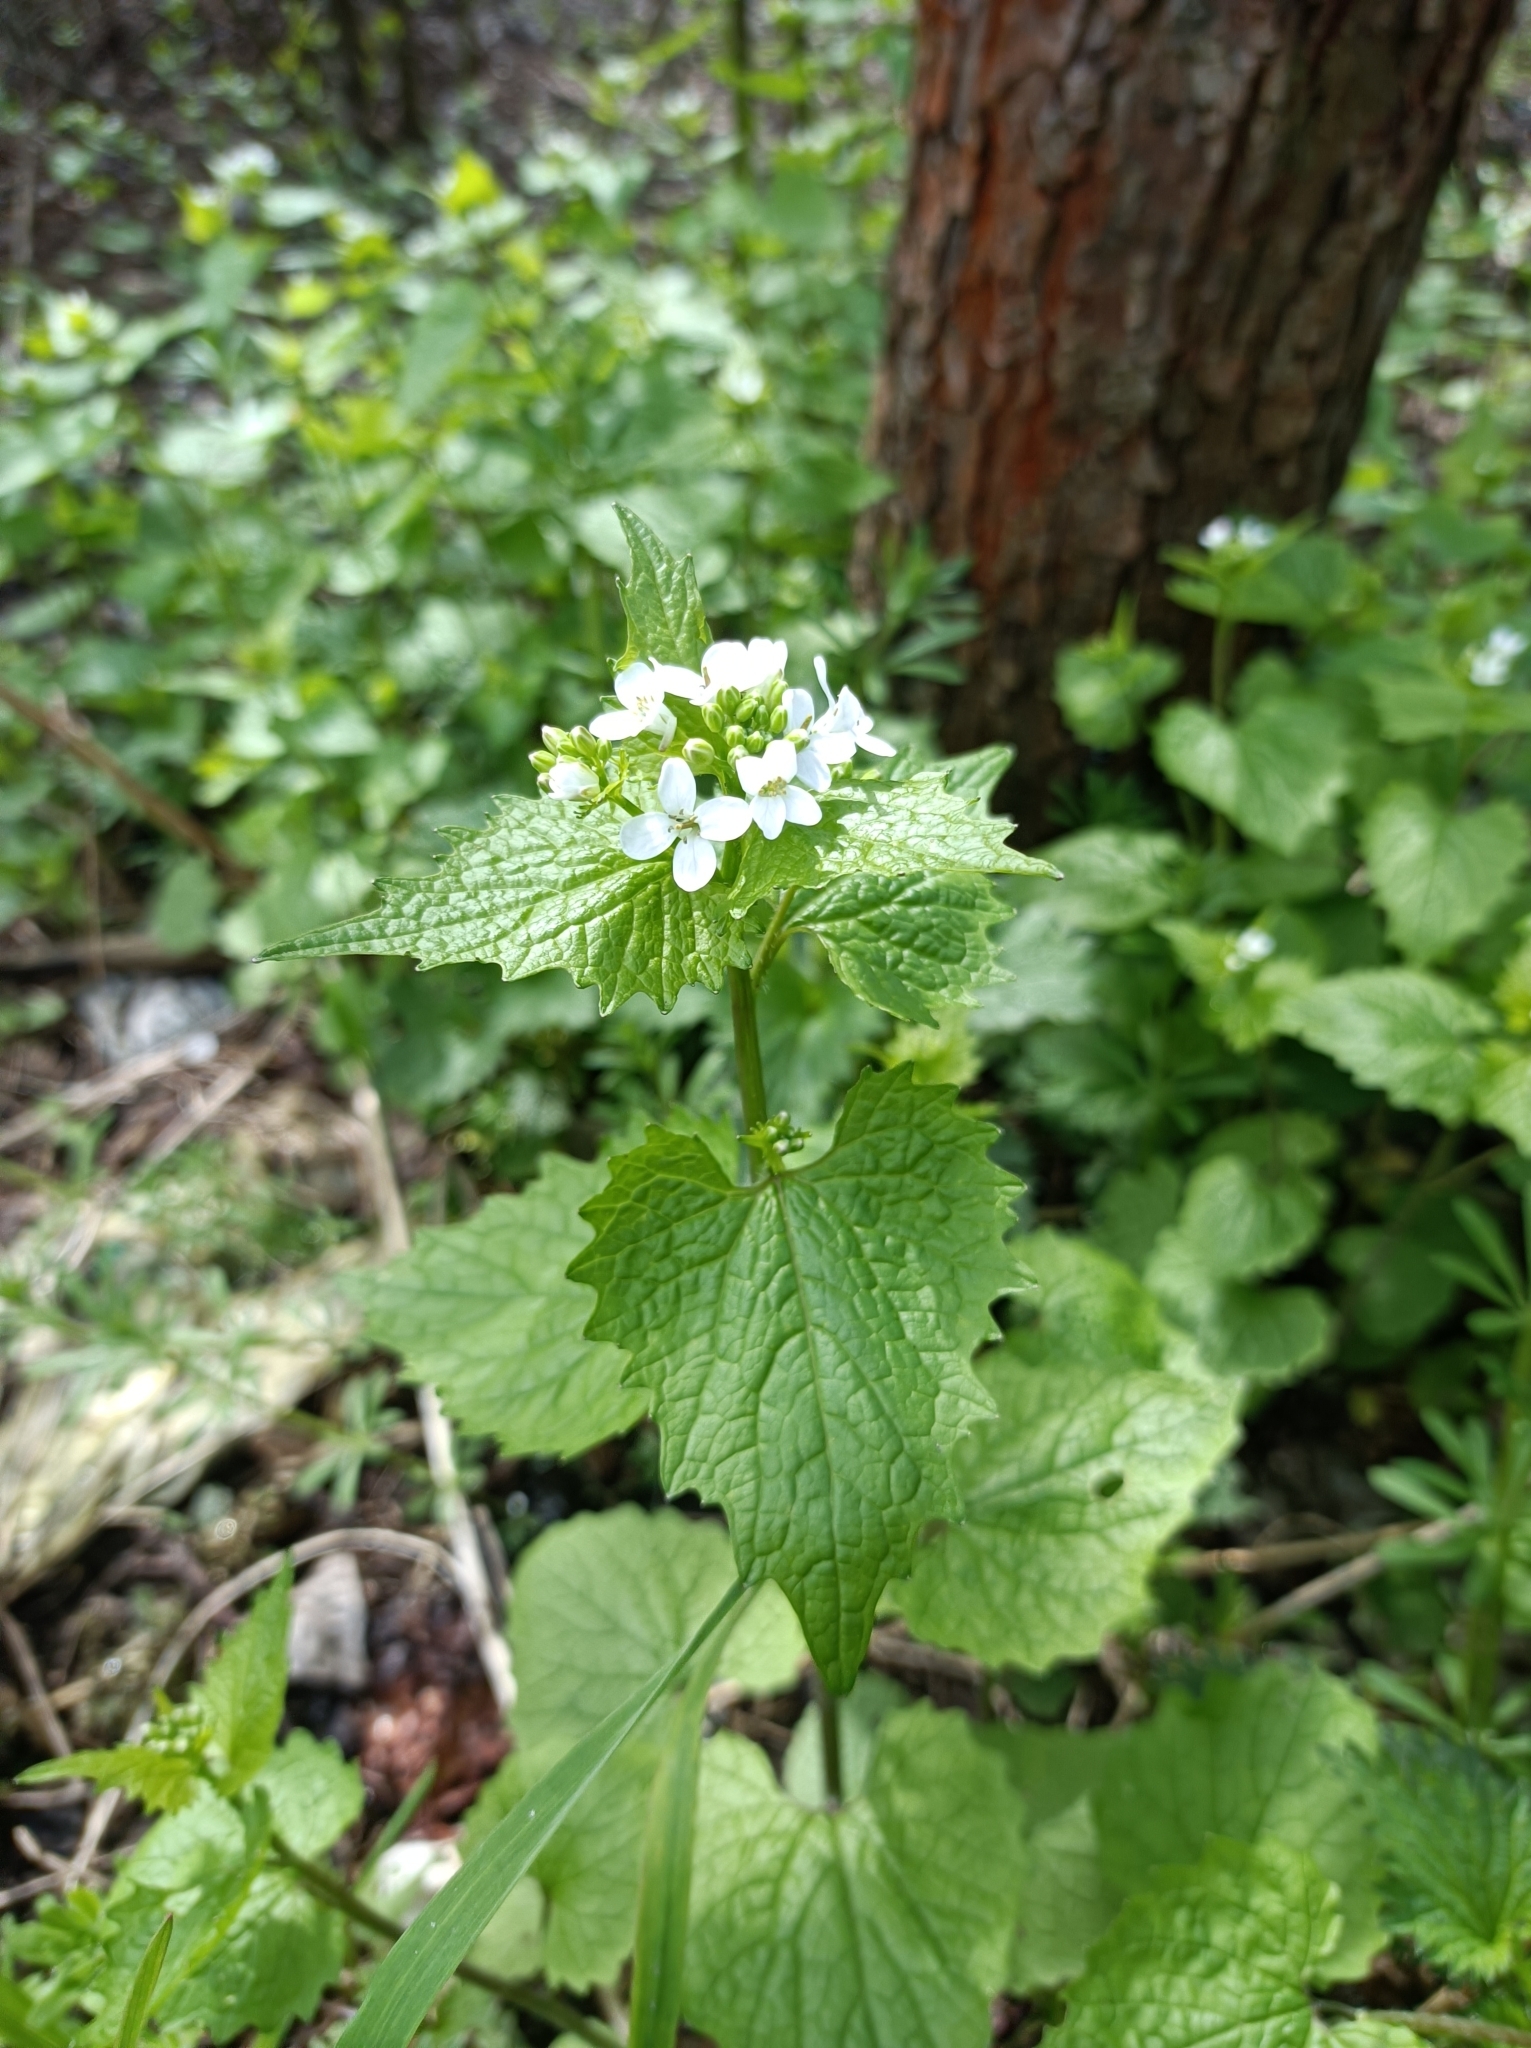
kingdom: Plantae
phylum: Tracheophyta
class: Magnoliopsida
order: Brassicales
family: Brassicaceae
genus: Alliaria
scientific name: Alliaria petiolata
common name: Garlic mustard
